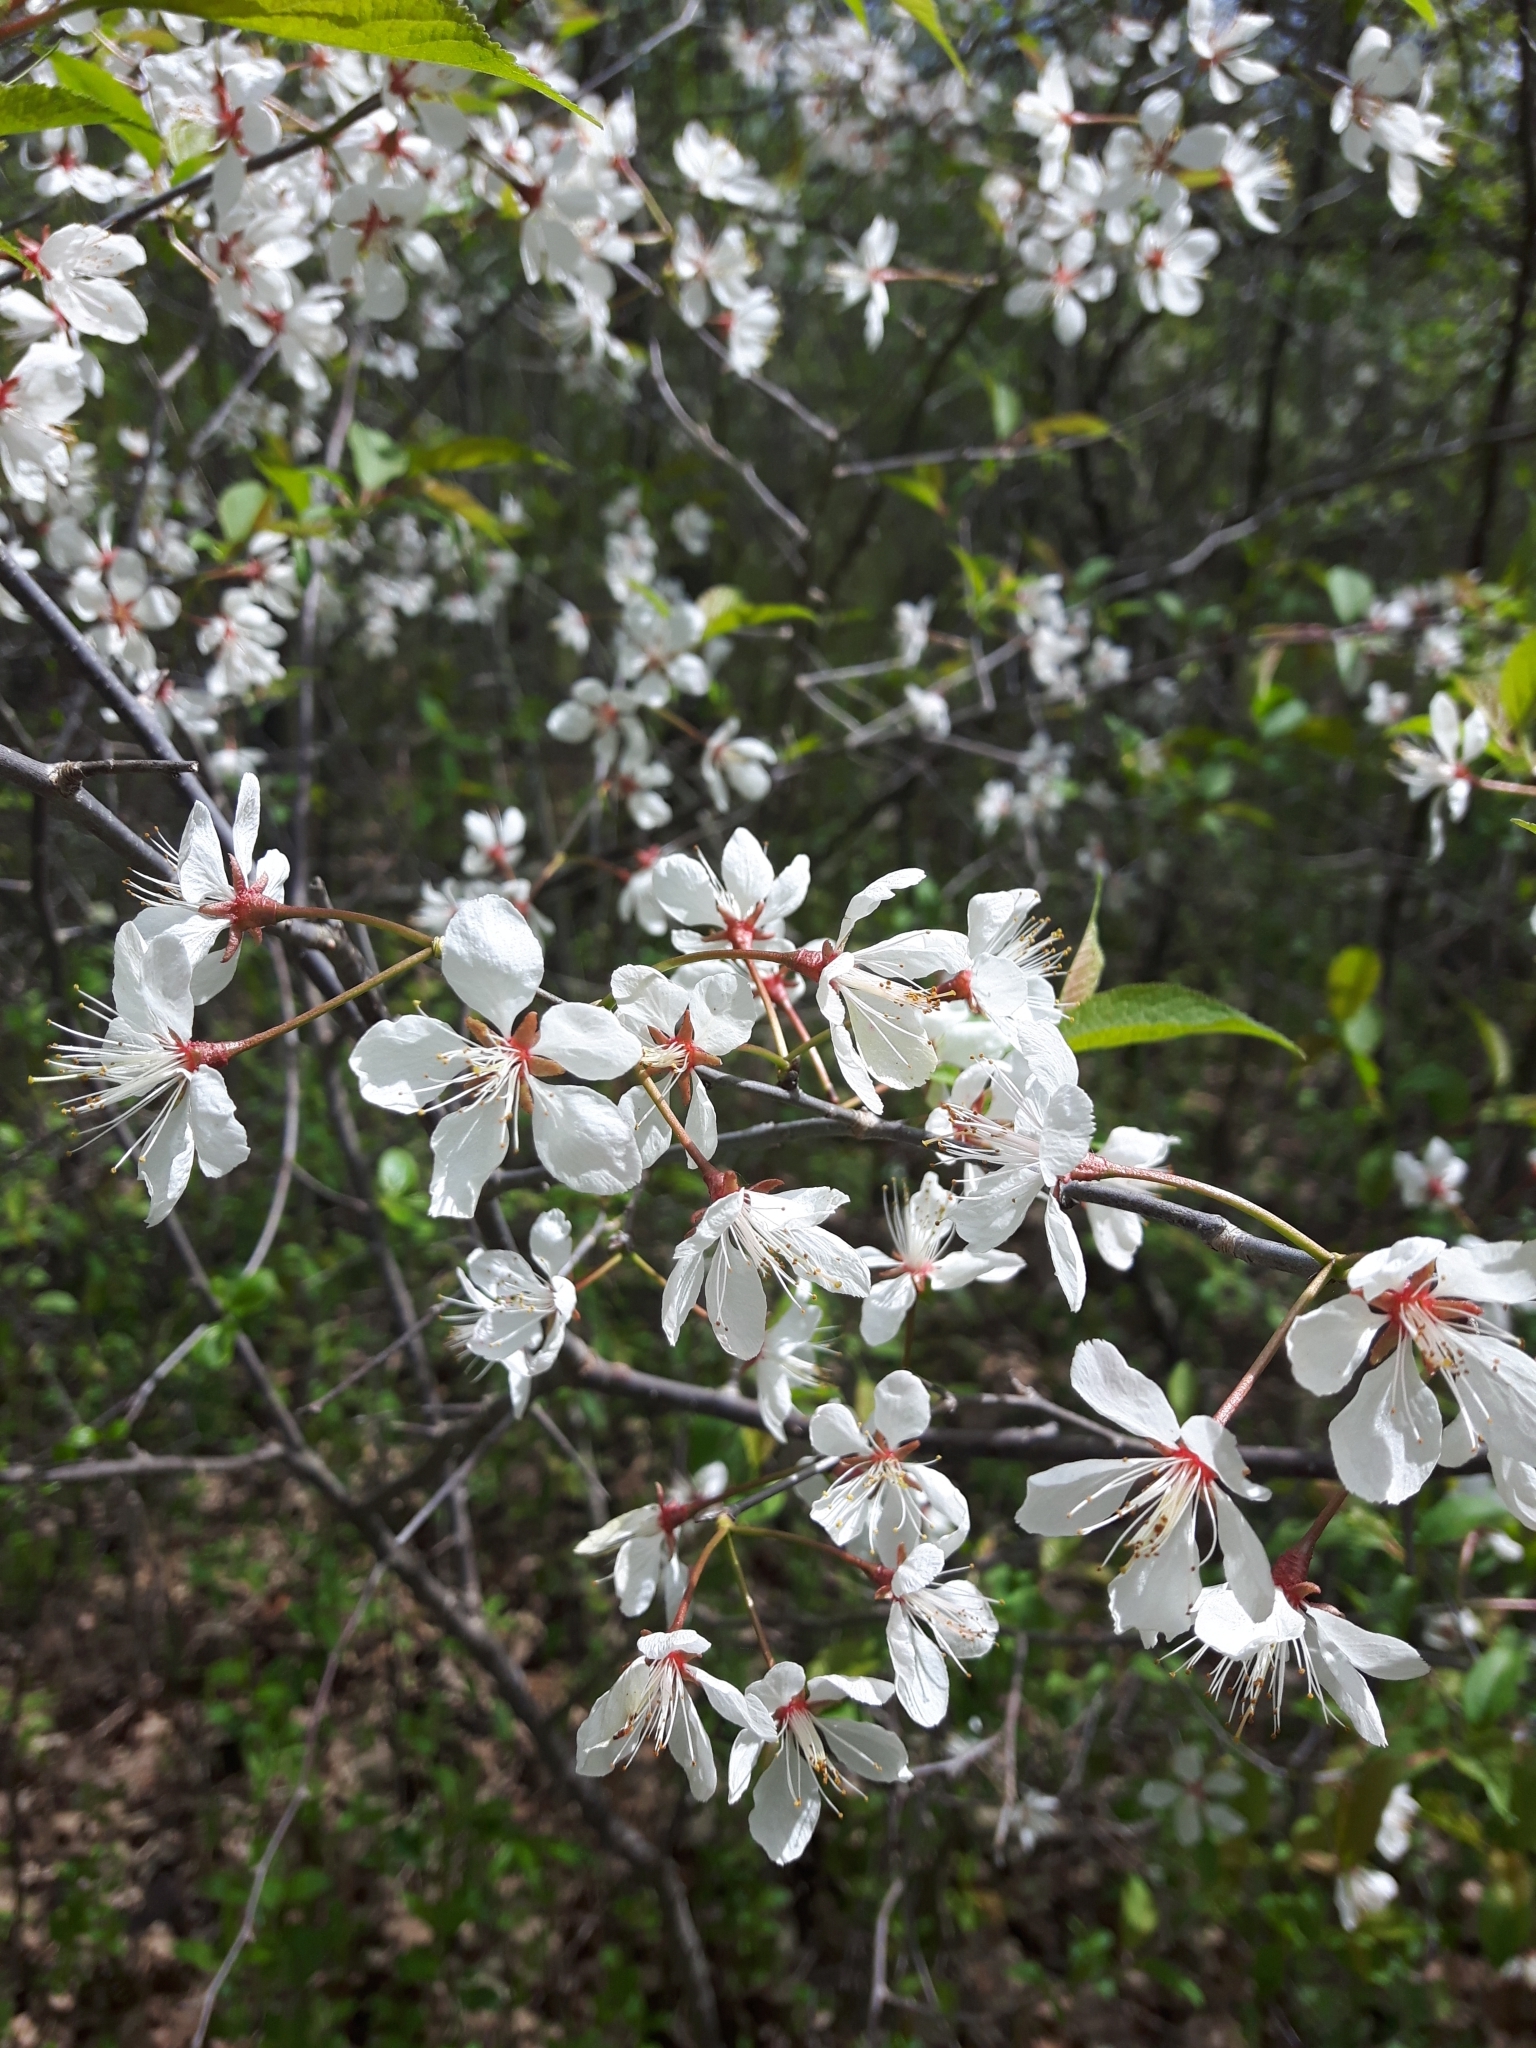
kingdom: Plantae
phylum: Tracheophyta
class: Magnoliopsida
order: Rosales
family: Rosaceae
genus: Prunus
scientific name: Prunus nigra
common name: Black plum
